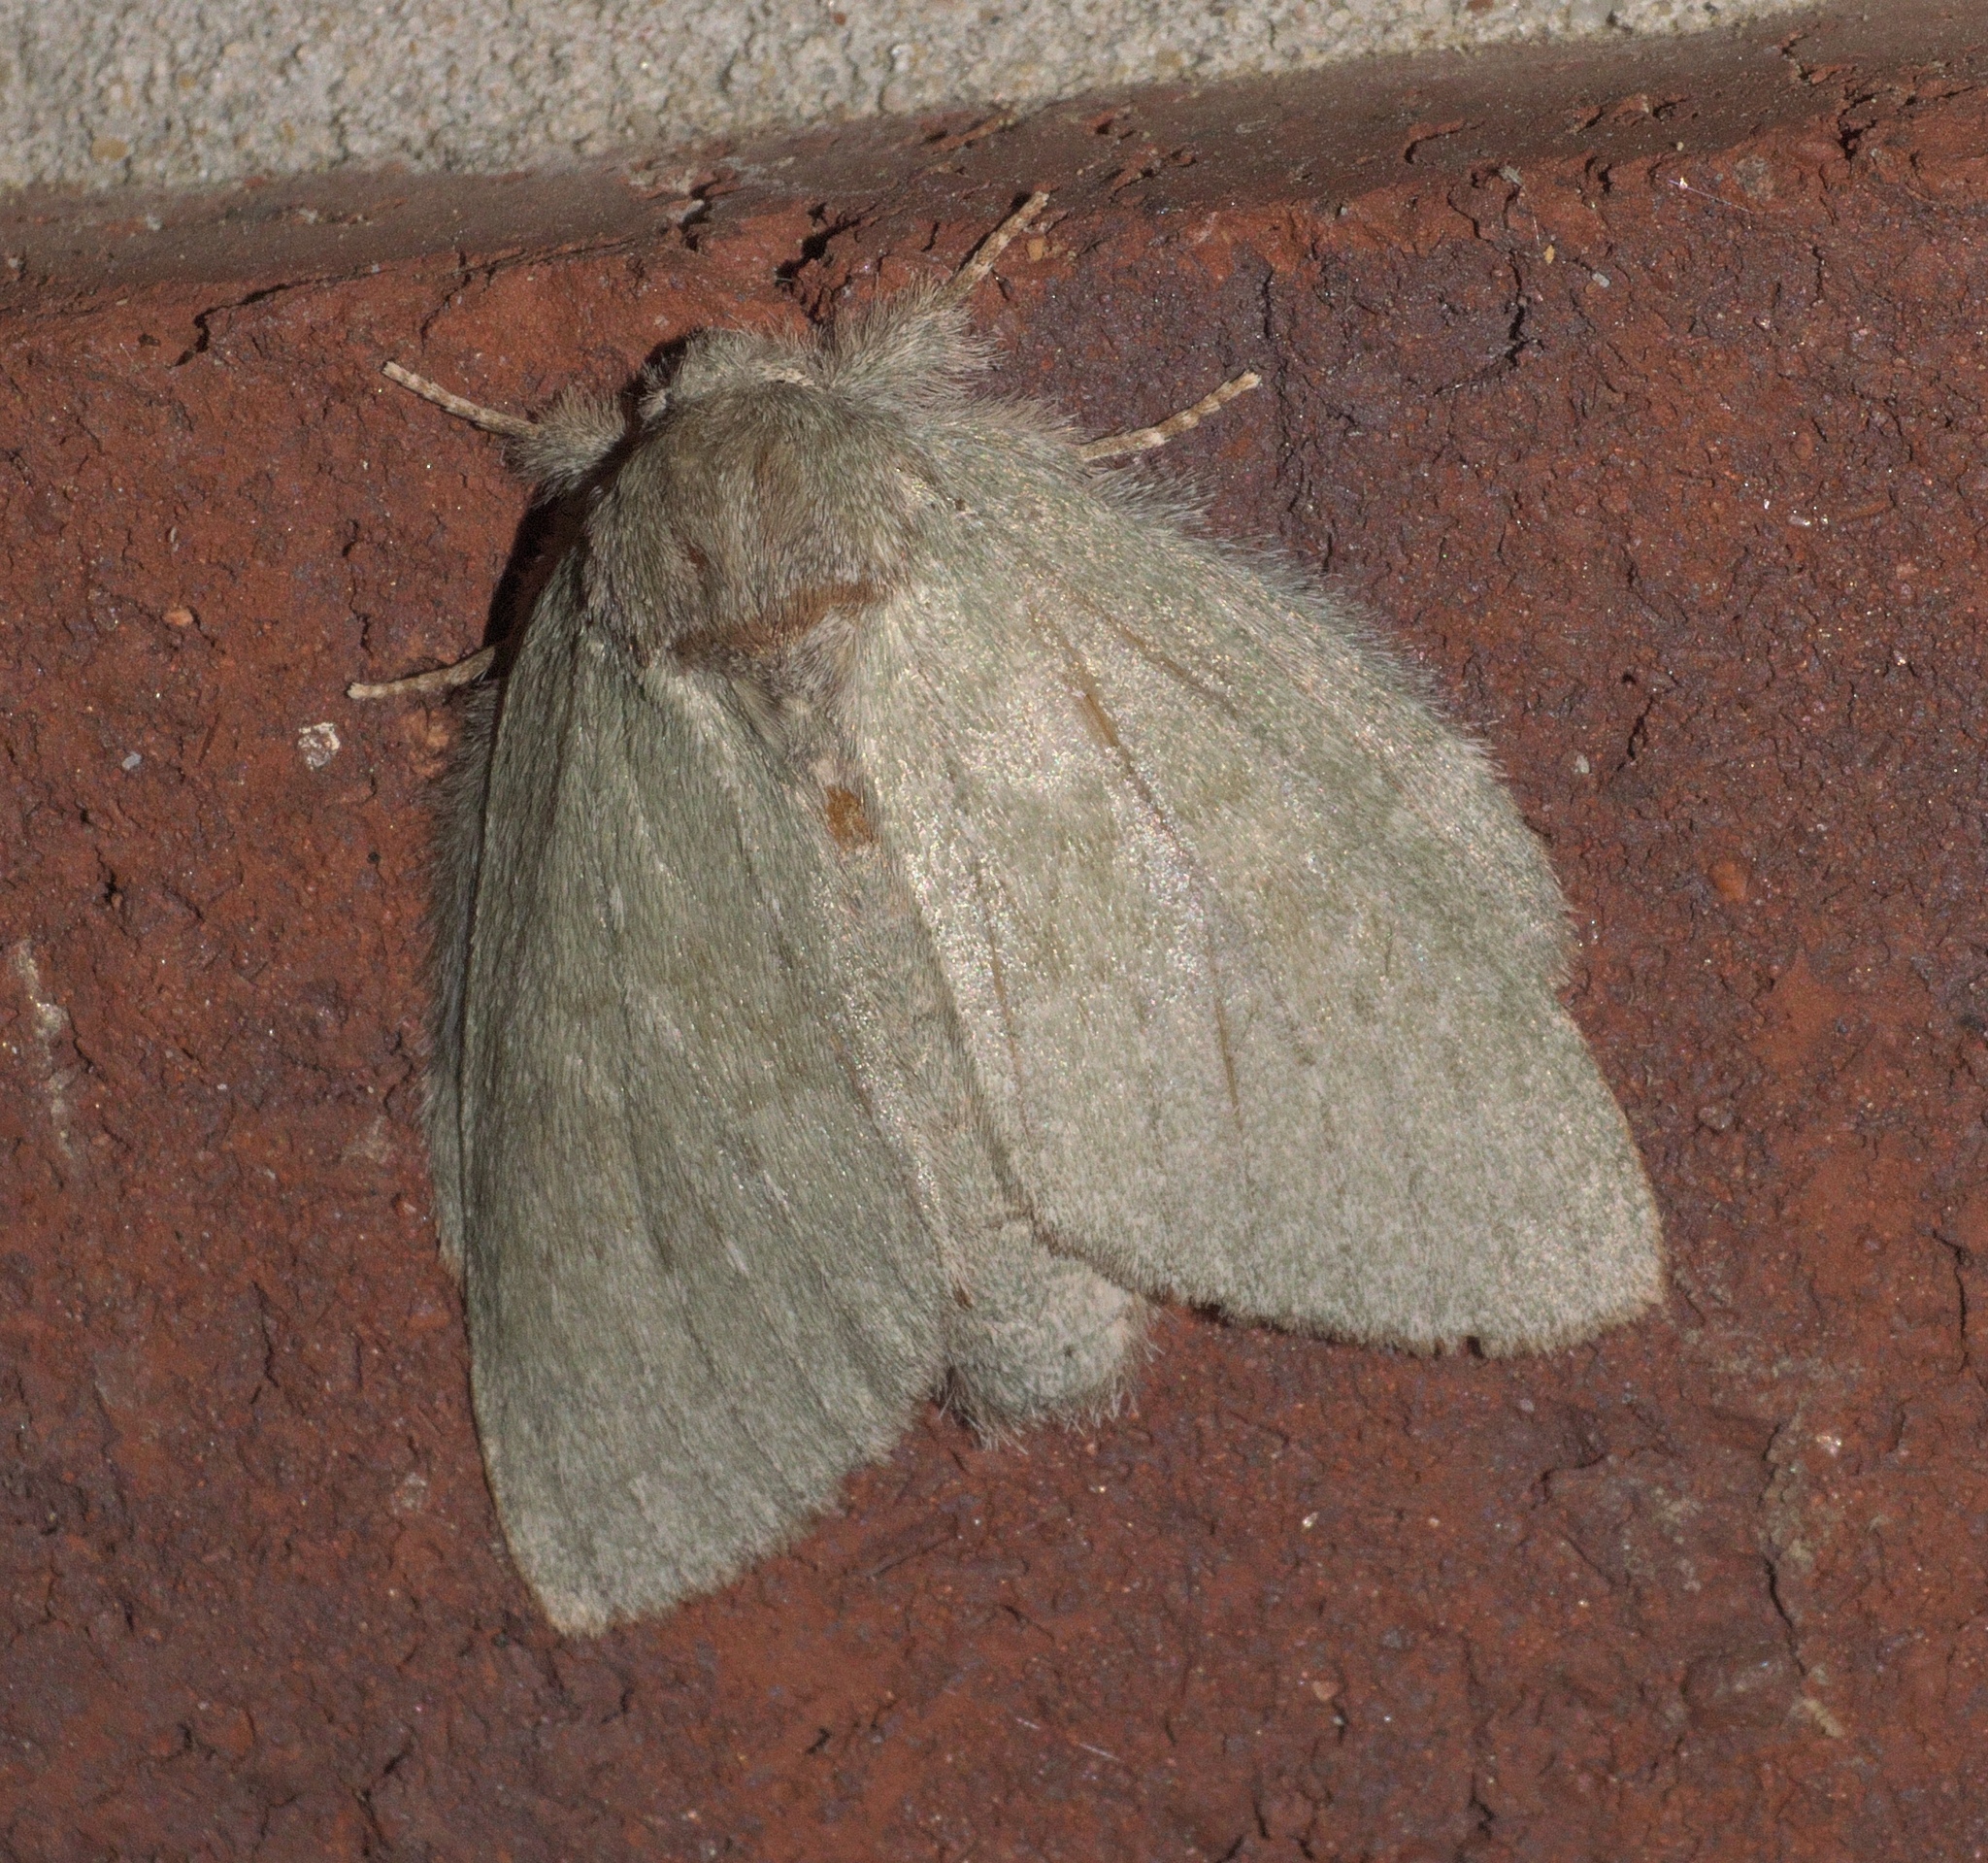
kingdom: Animalia
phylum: Arthropoda
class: Insecta
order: Lepidoptera
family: Notodontidae
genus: Misogada
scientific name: Misogada unicolor
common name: Drab prominent
